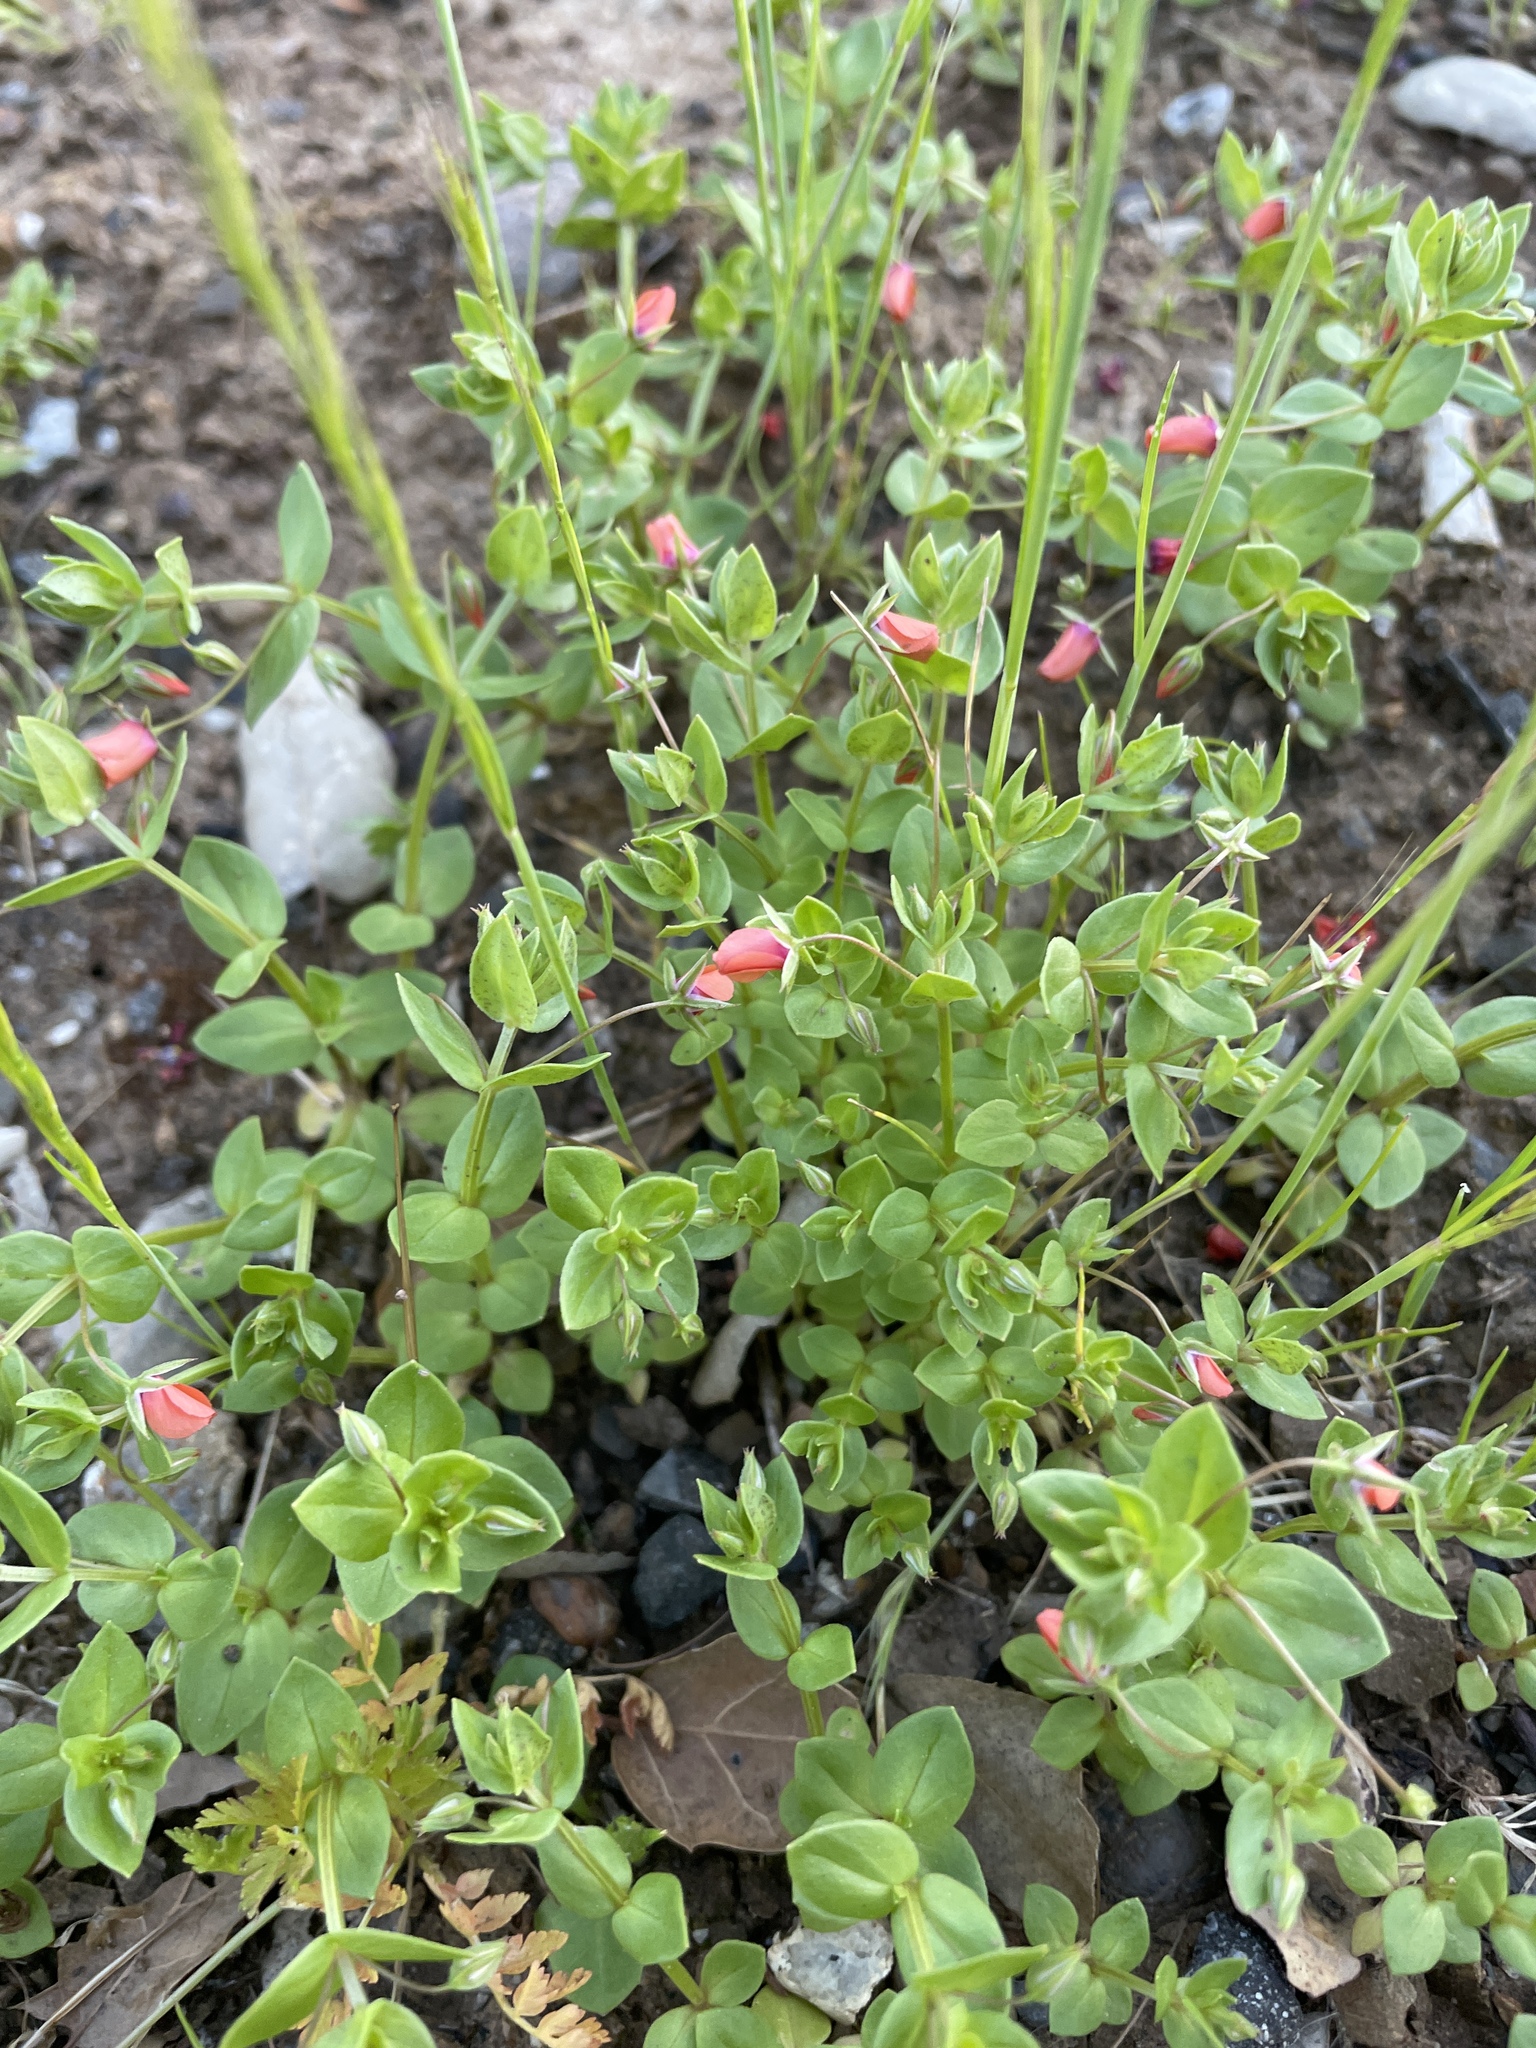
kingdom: Plantae
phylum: Tracheophyta
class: Magnoliopsida
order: Ericales
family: Primulaceae
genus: Lysimachia
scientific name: Lysimachia arvensis
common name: Scarlet pimpernel
